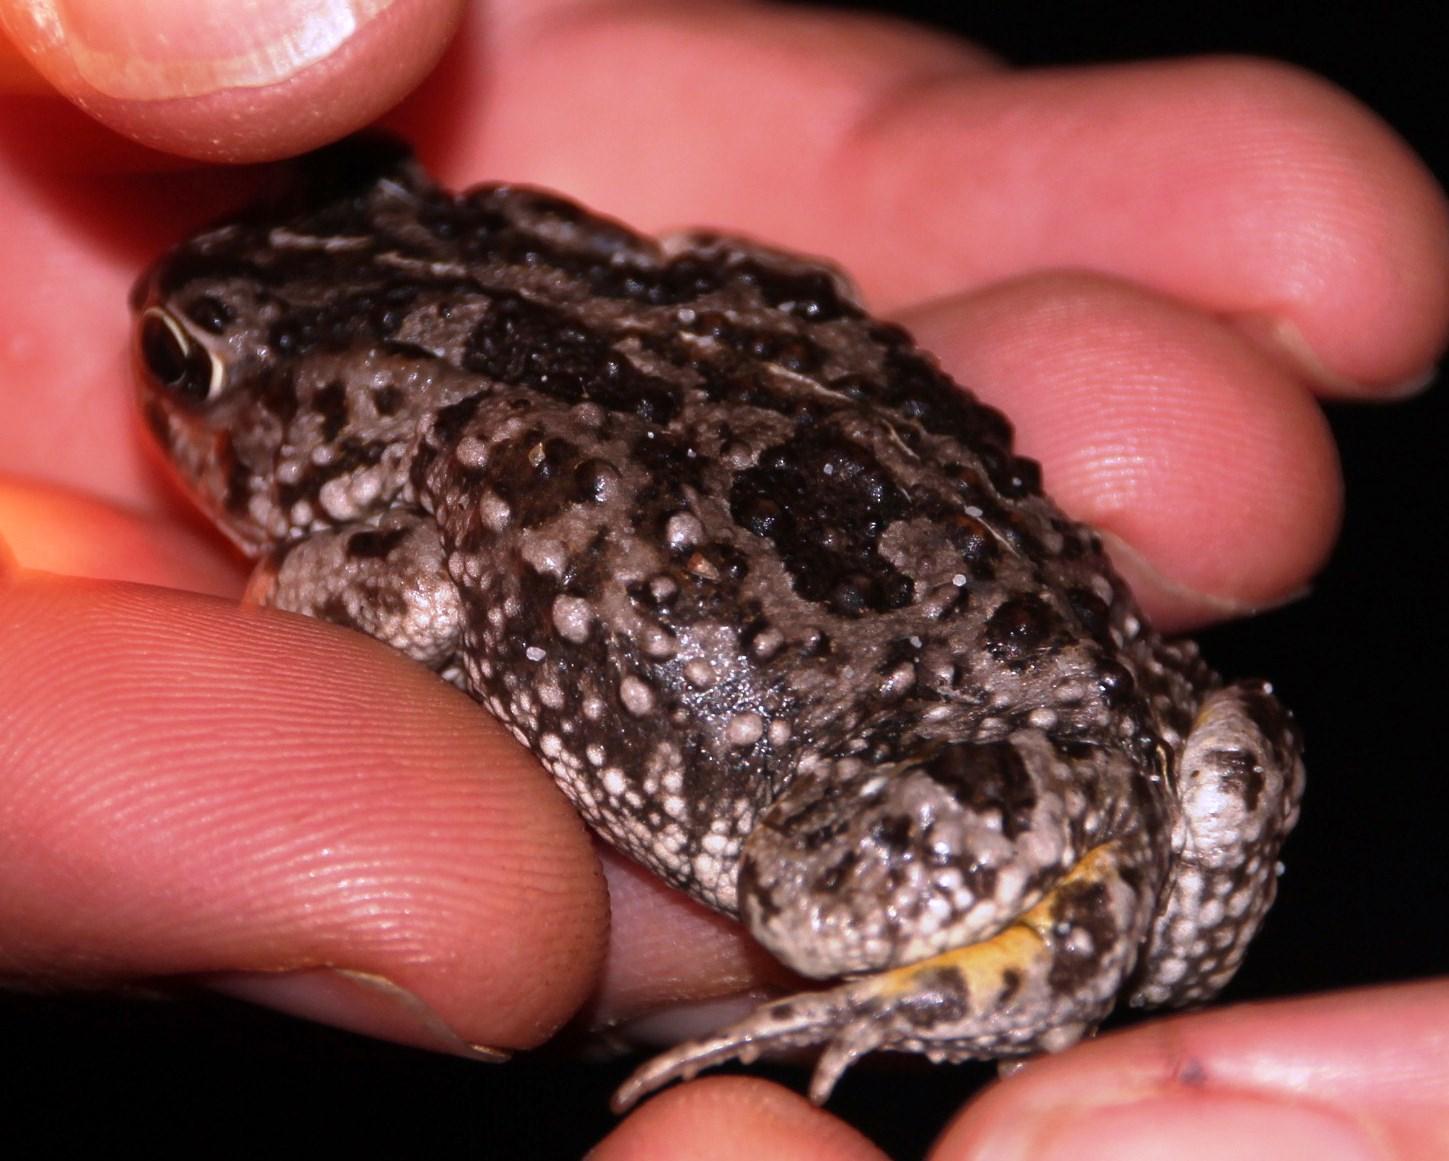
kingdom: Animalia
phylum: Chordata
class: Amphibia
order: Anura
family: Bufonidae
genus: Vandijkophrynus
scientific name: Vandijkophrynus angusticeps
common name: Sand toad
